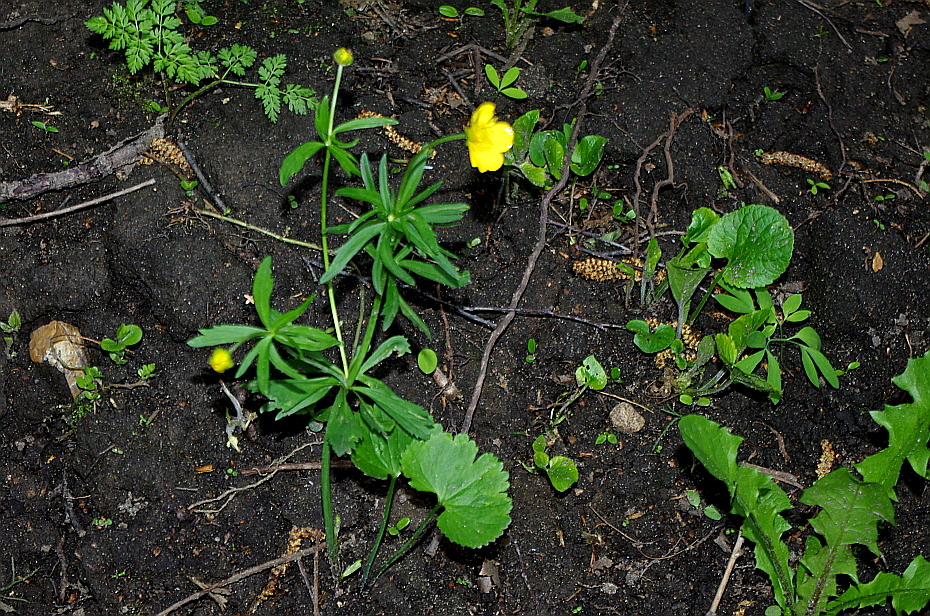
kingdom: Plantae
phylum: Tracheophyta
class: Magnoliopsida
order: Ranunculales
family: Ranunculaceae
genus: Ranunculus
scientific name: Ranunculus cassubicus
